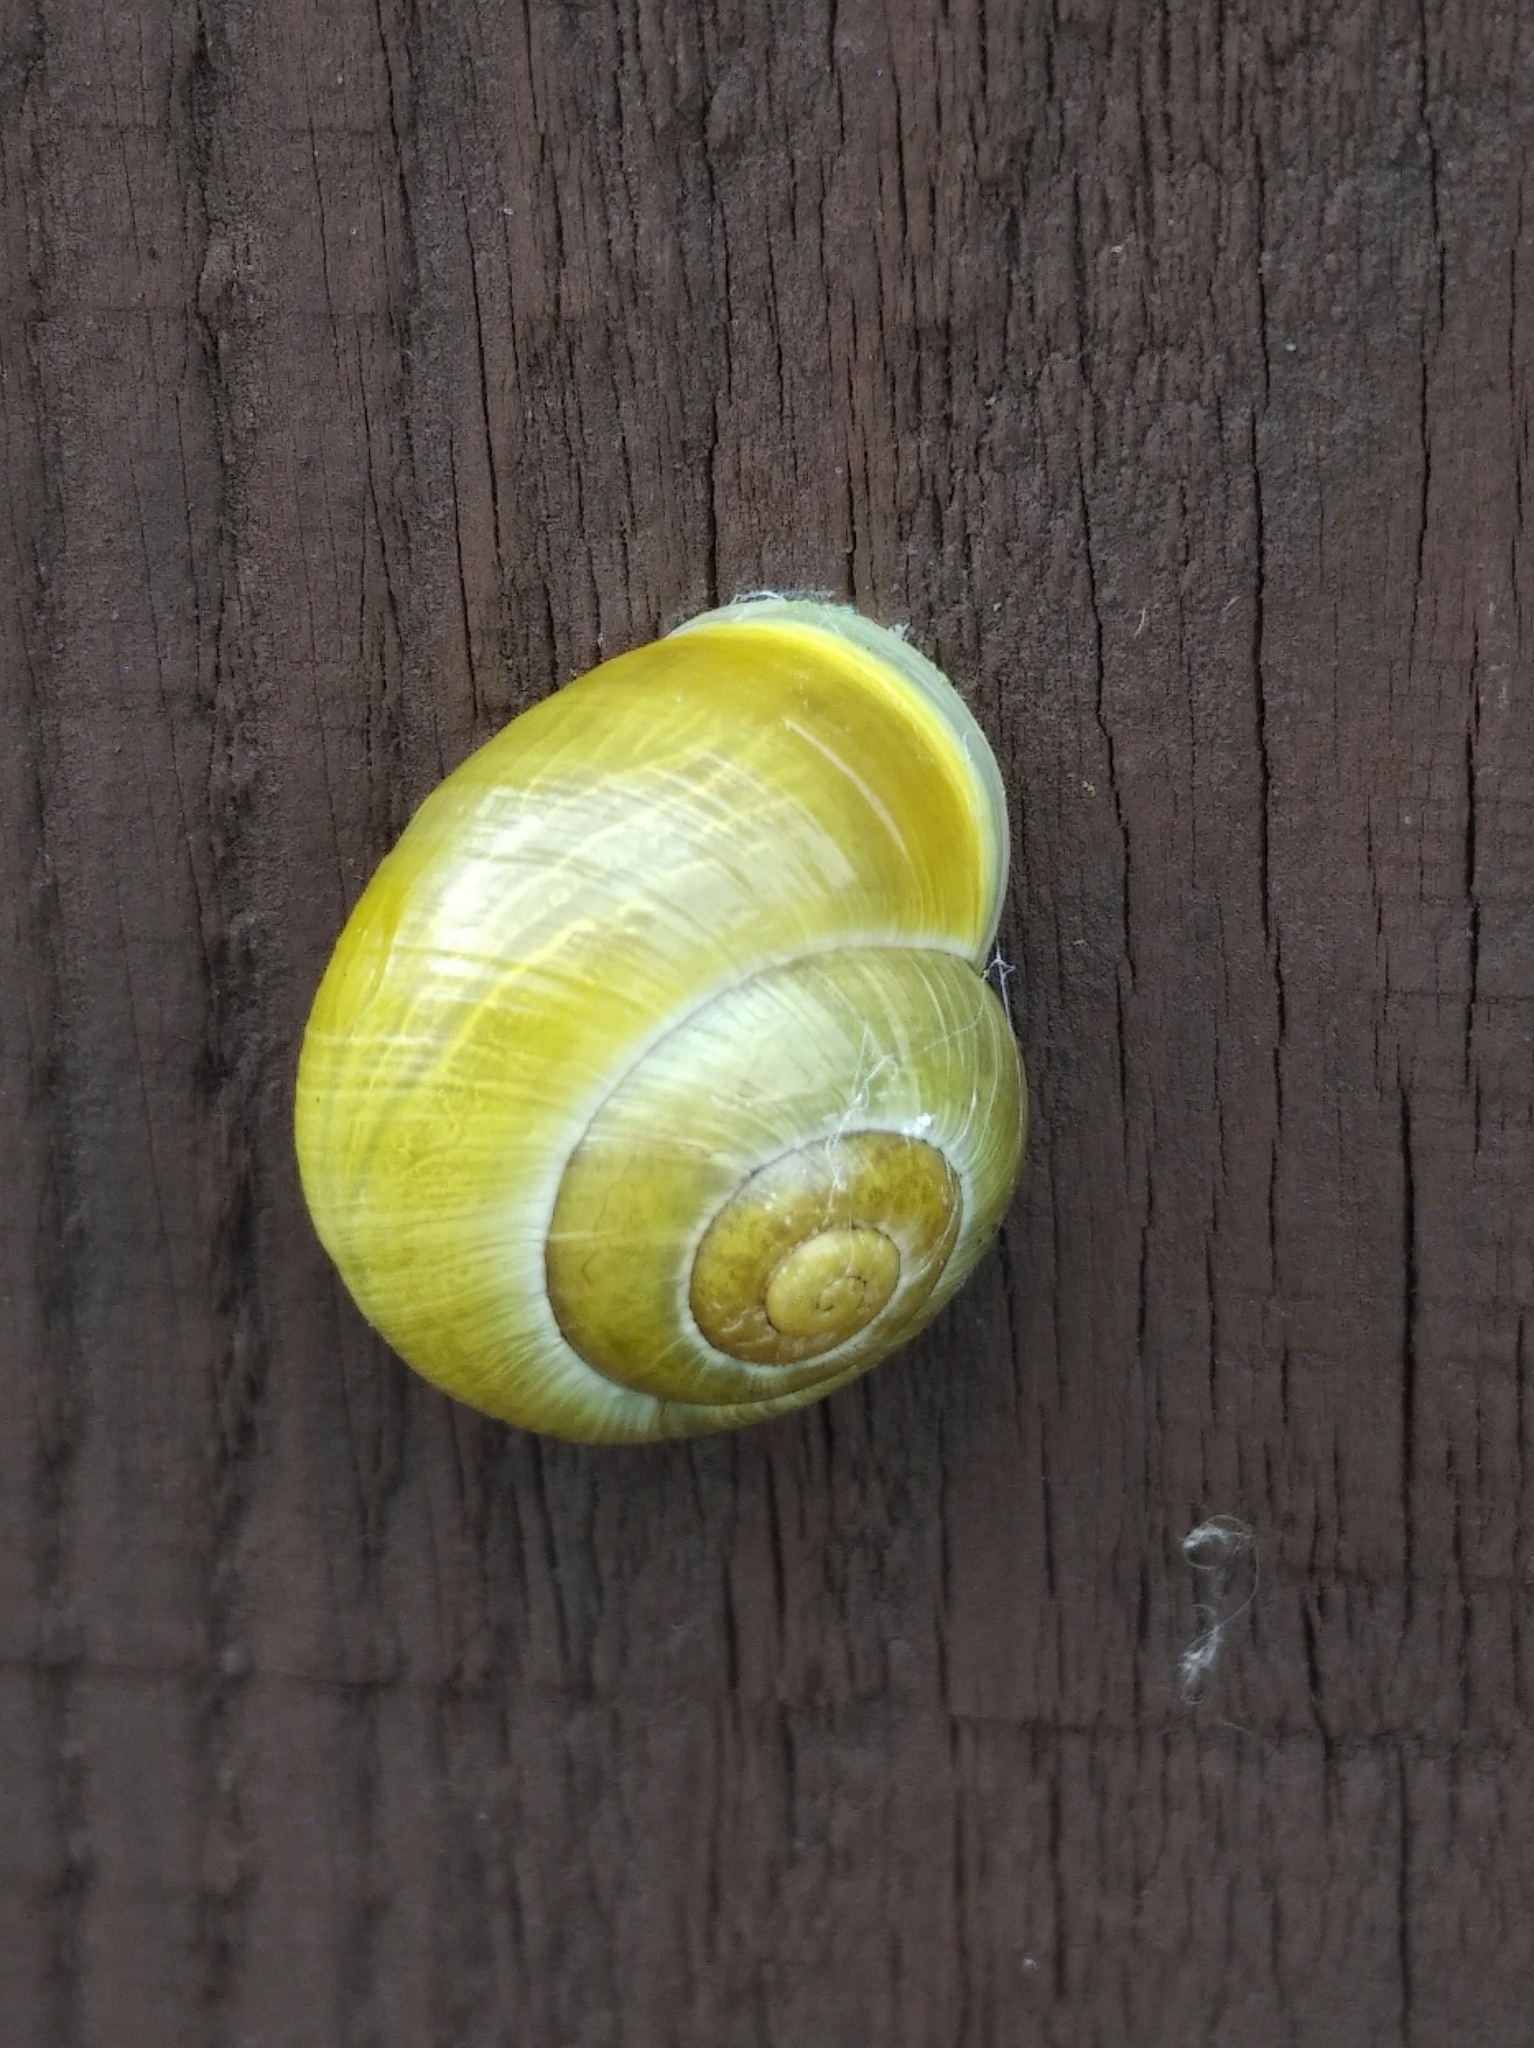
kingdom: Animalia
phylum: Mollusca
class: Gastropoda
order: Stylommatophora
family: Helicidae
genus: Cepaea
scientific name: Cepaea hortensis
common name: White-lip gardensnail
